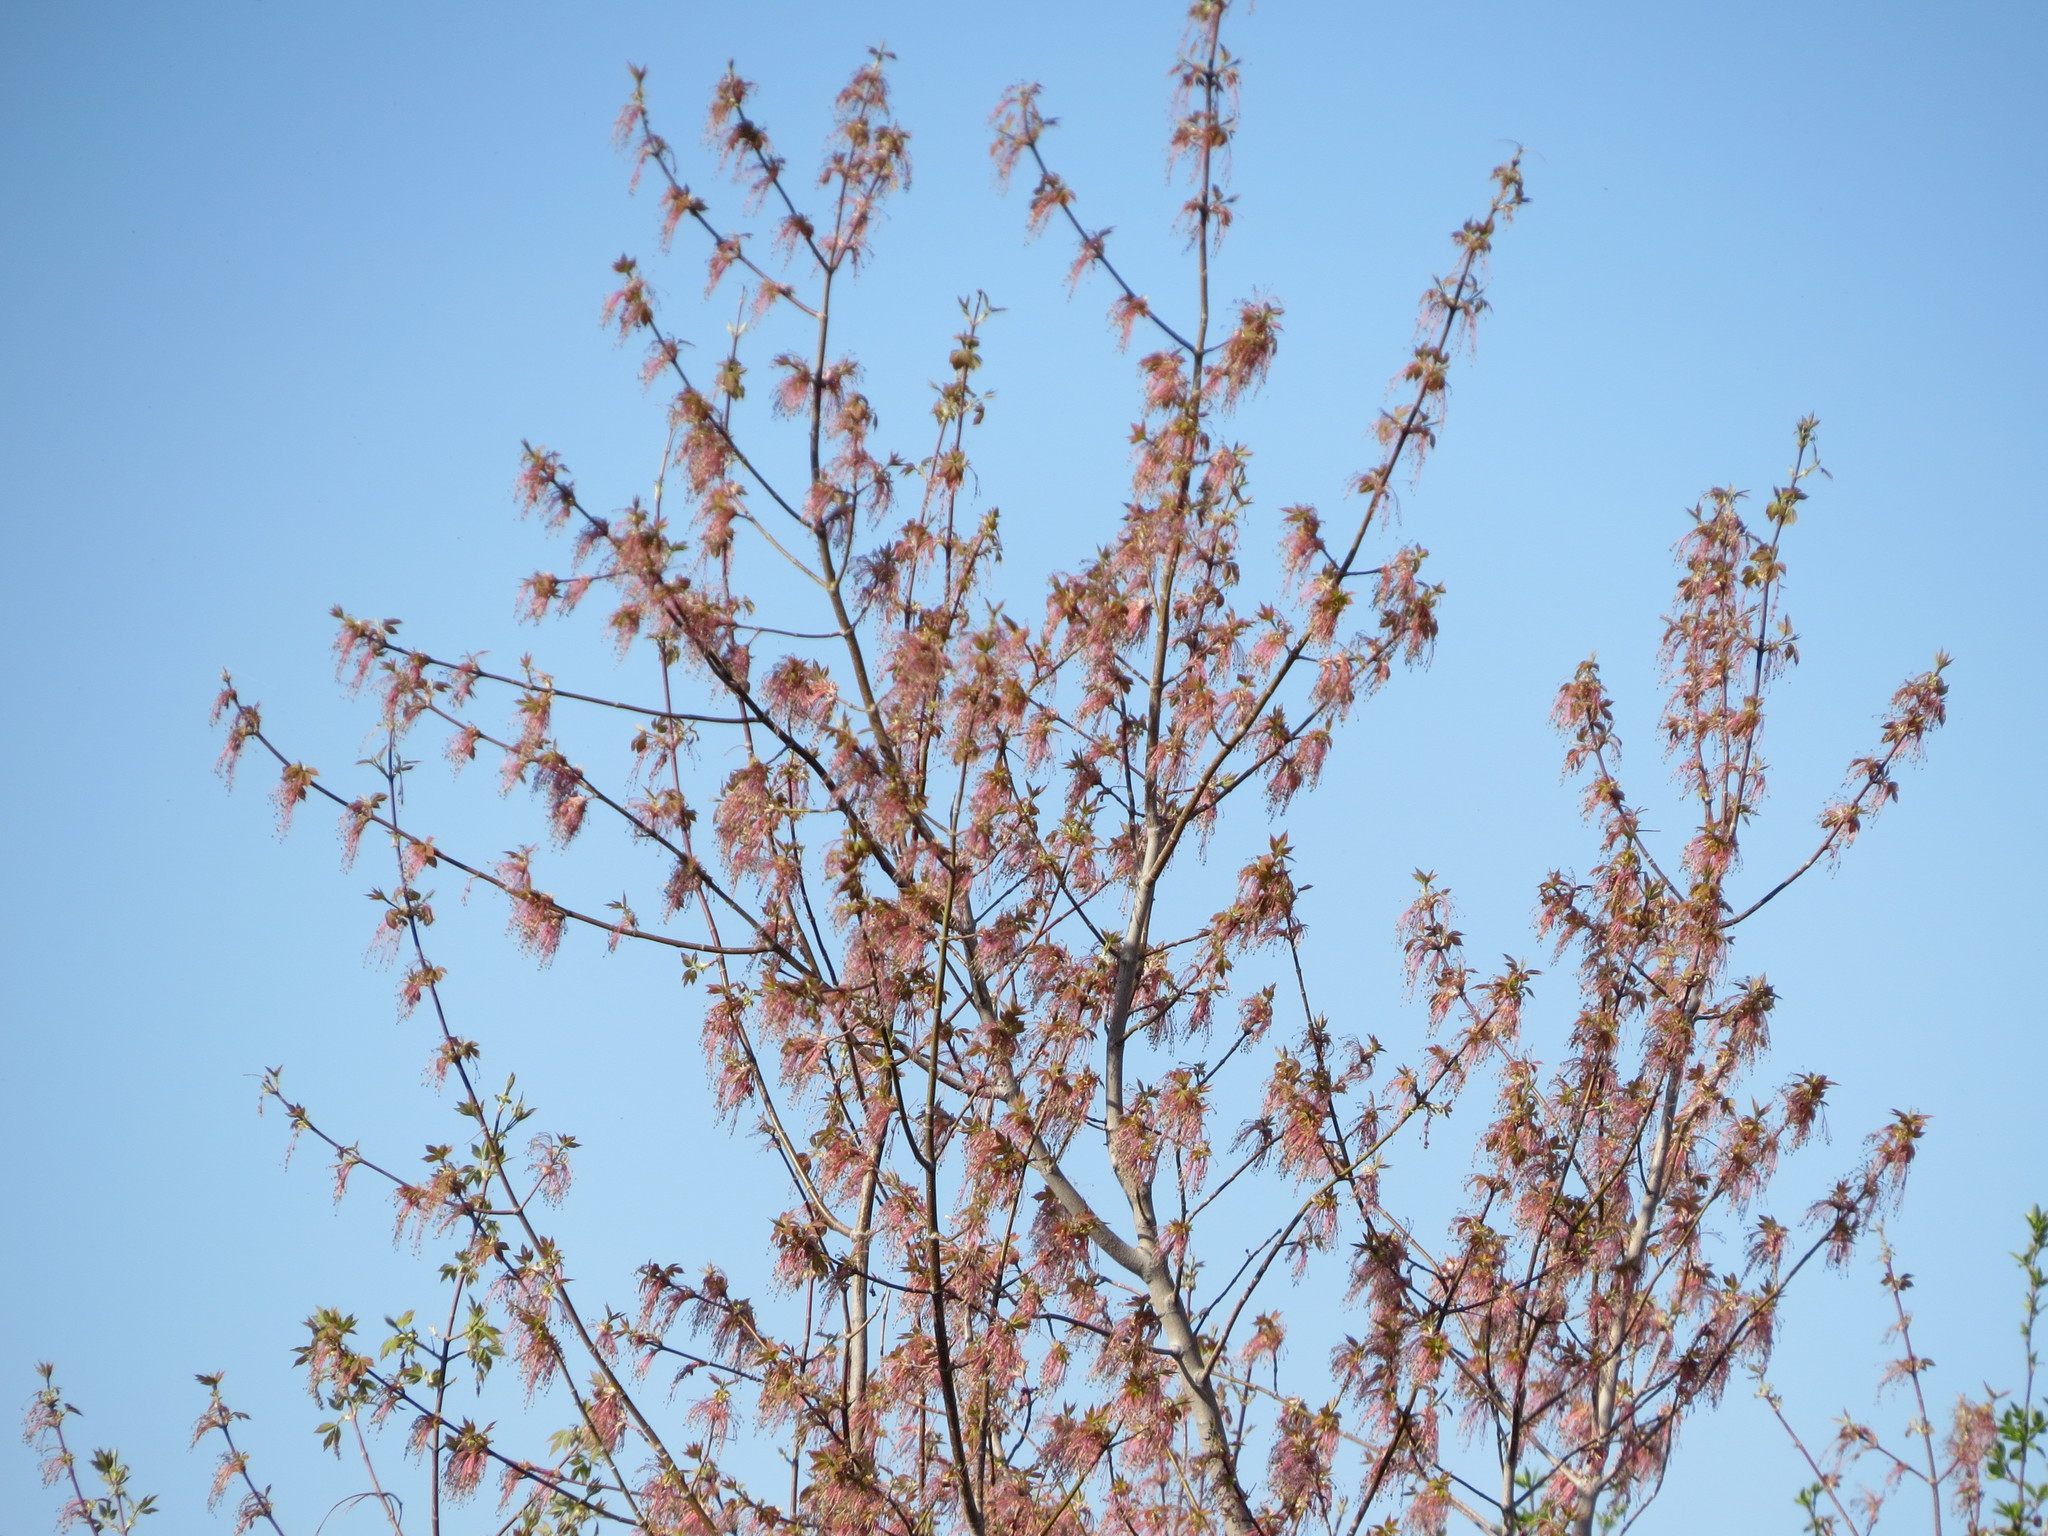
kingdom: Plantae
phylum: Tracheophyta
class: Magnoliopsida
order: Sapindales
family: Sapindaceae
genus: Acer
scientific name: Acer negundo
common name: Ashleaf maple
